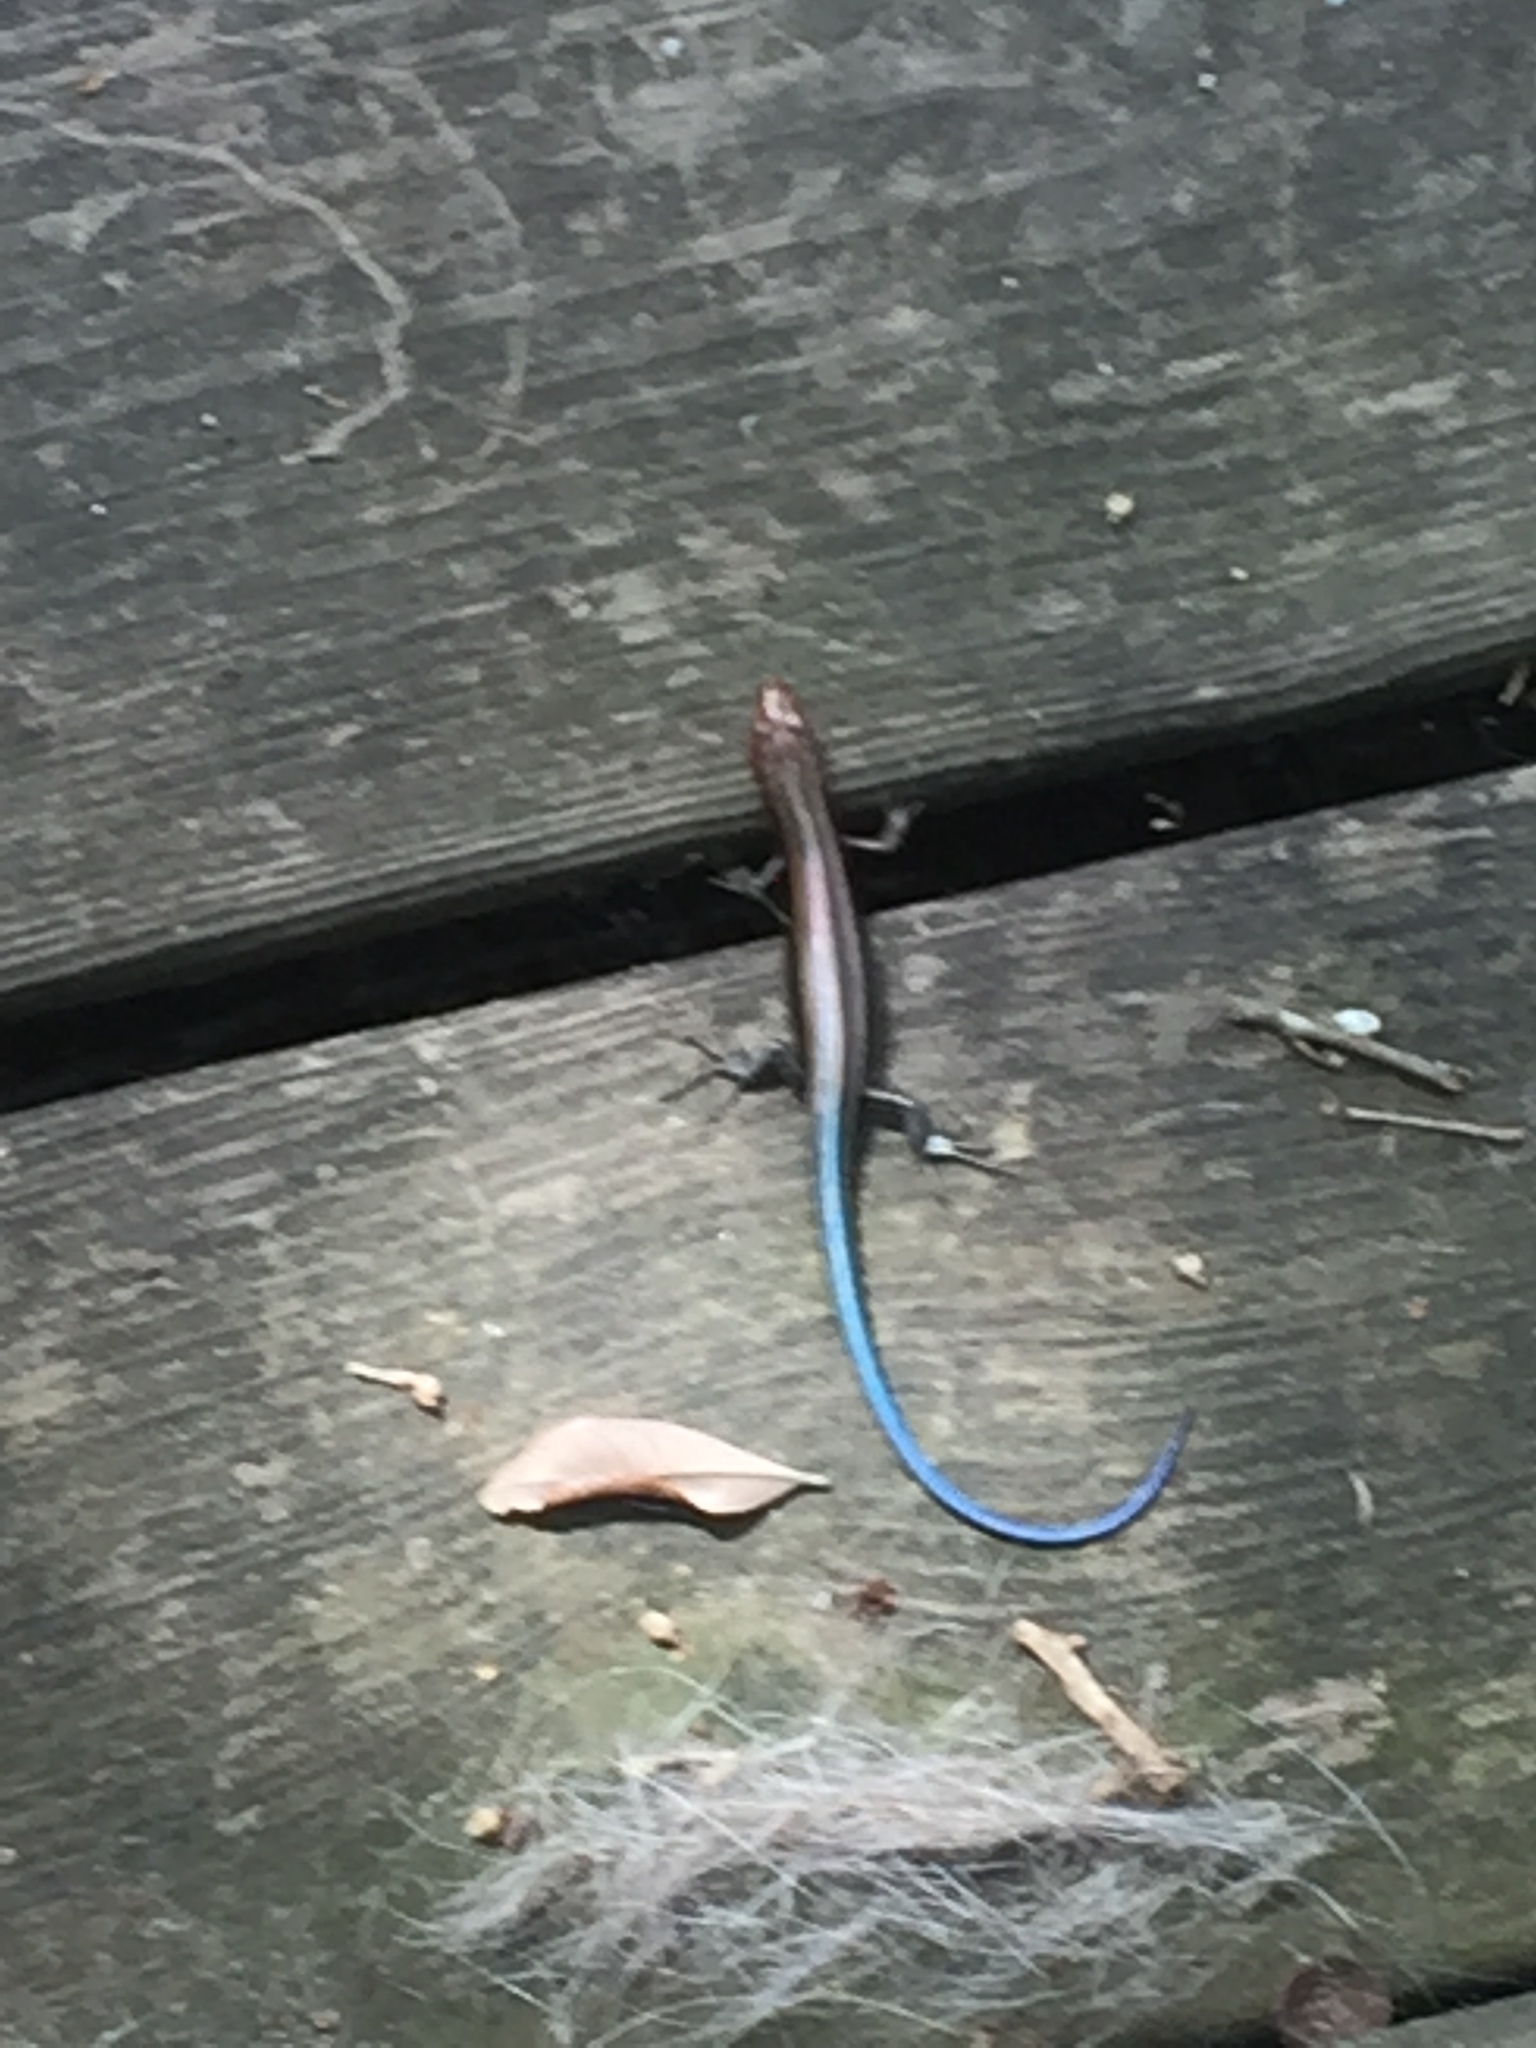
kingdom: Animalia
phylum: Chordata
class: Squamata
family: Scincidae
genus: Plestiodon
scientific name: Plestiodon
